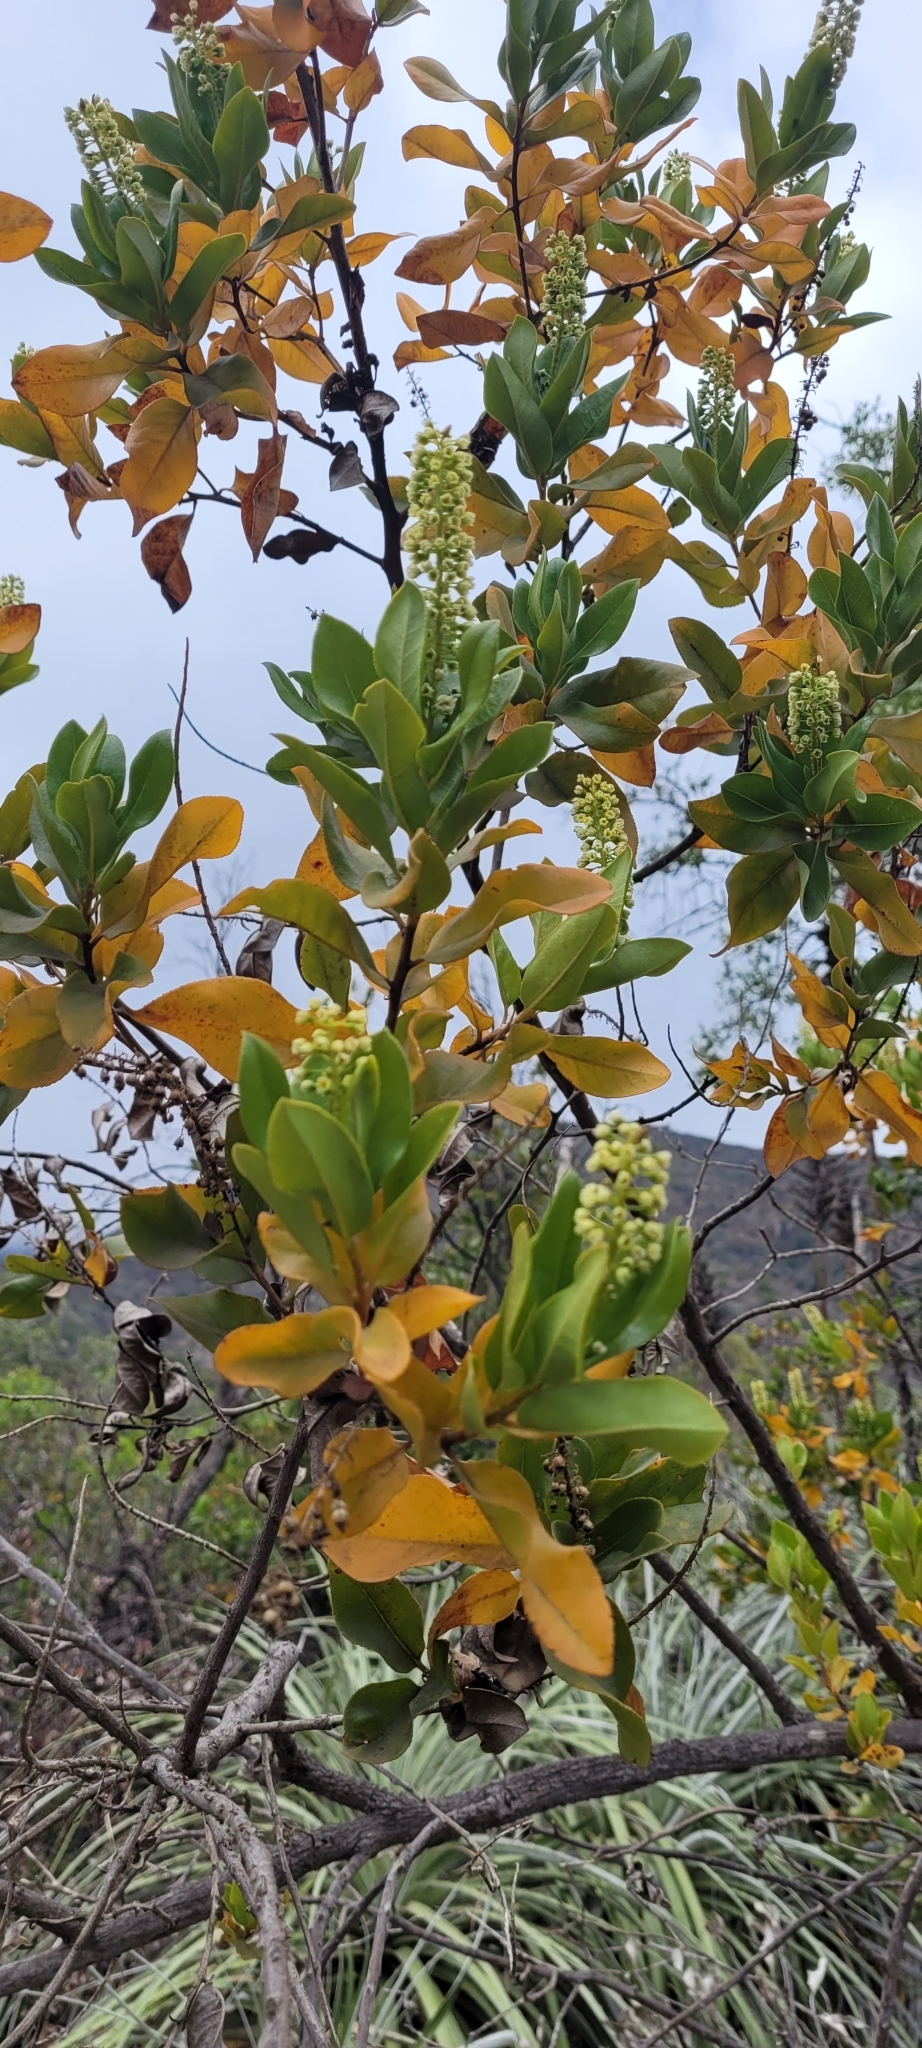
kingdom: Plantae
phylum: Tracheophyta
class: Magnoliopsida
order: Escalloniales
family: Escalloniaceae
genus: Escallonia
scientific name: Escallonia pulverulenta
